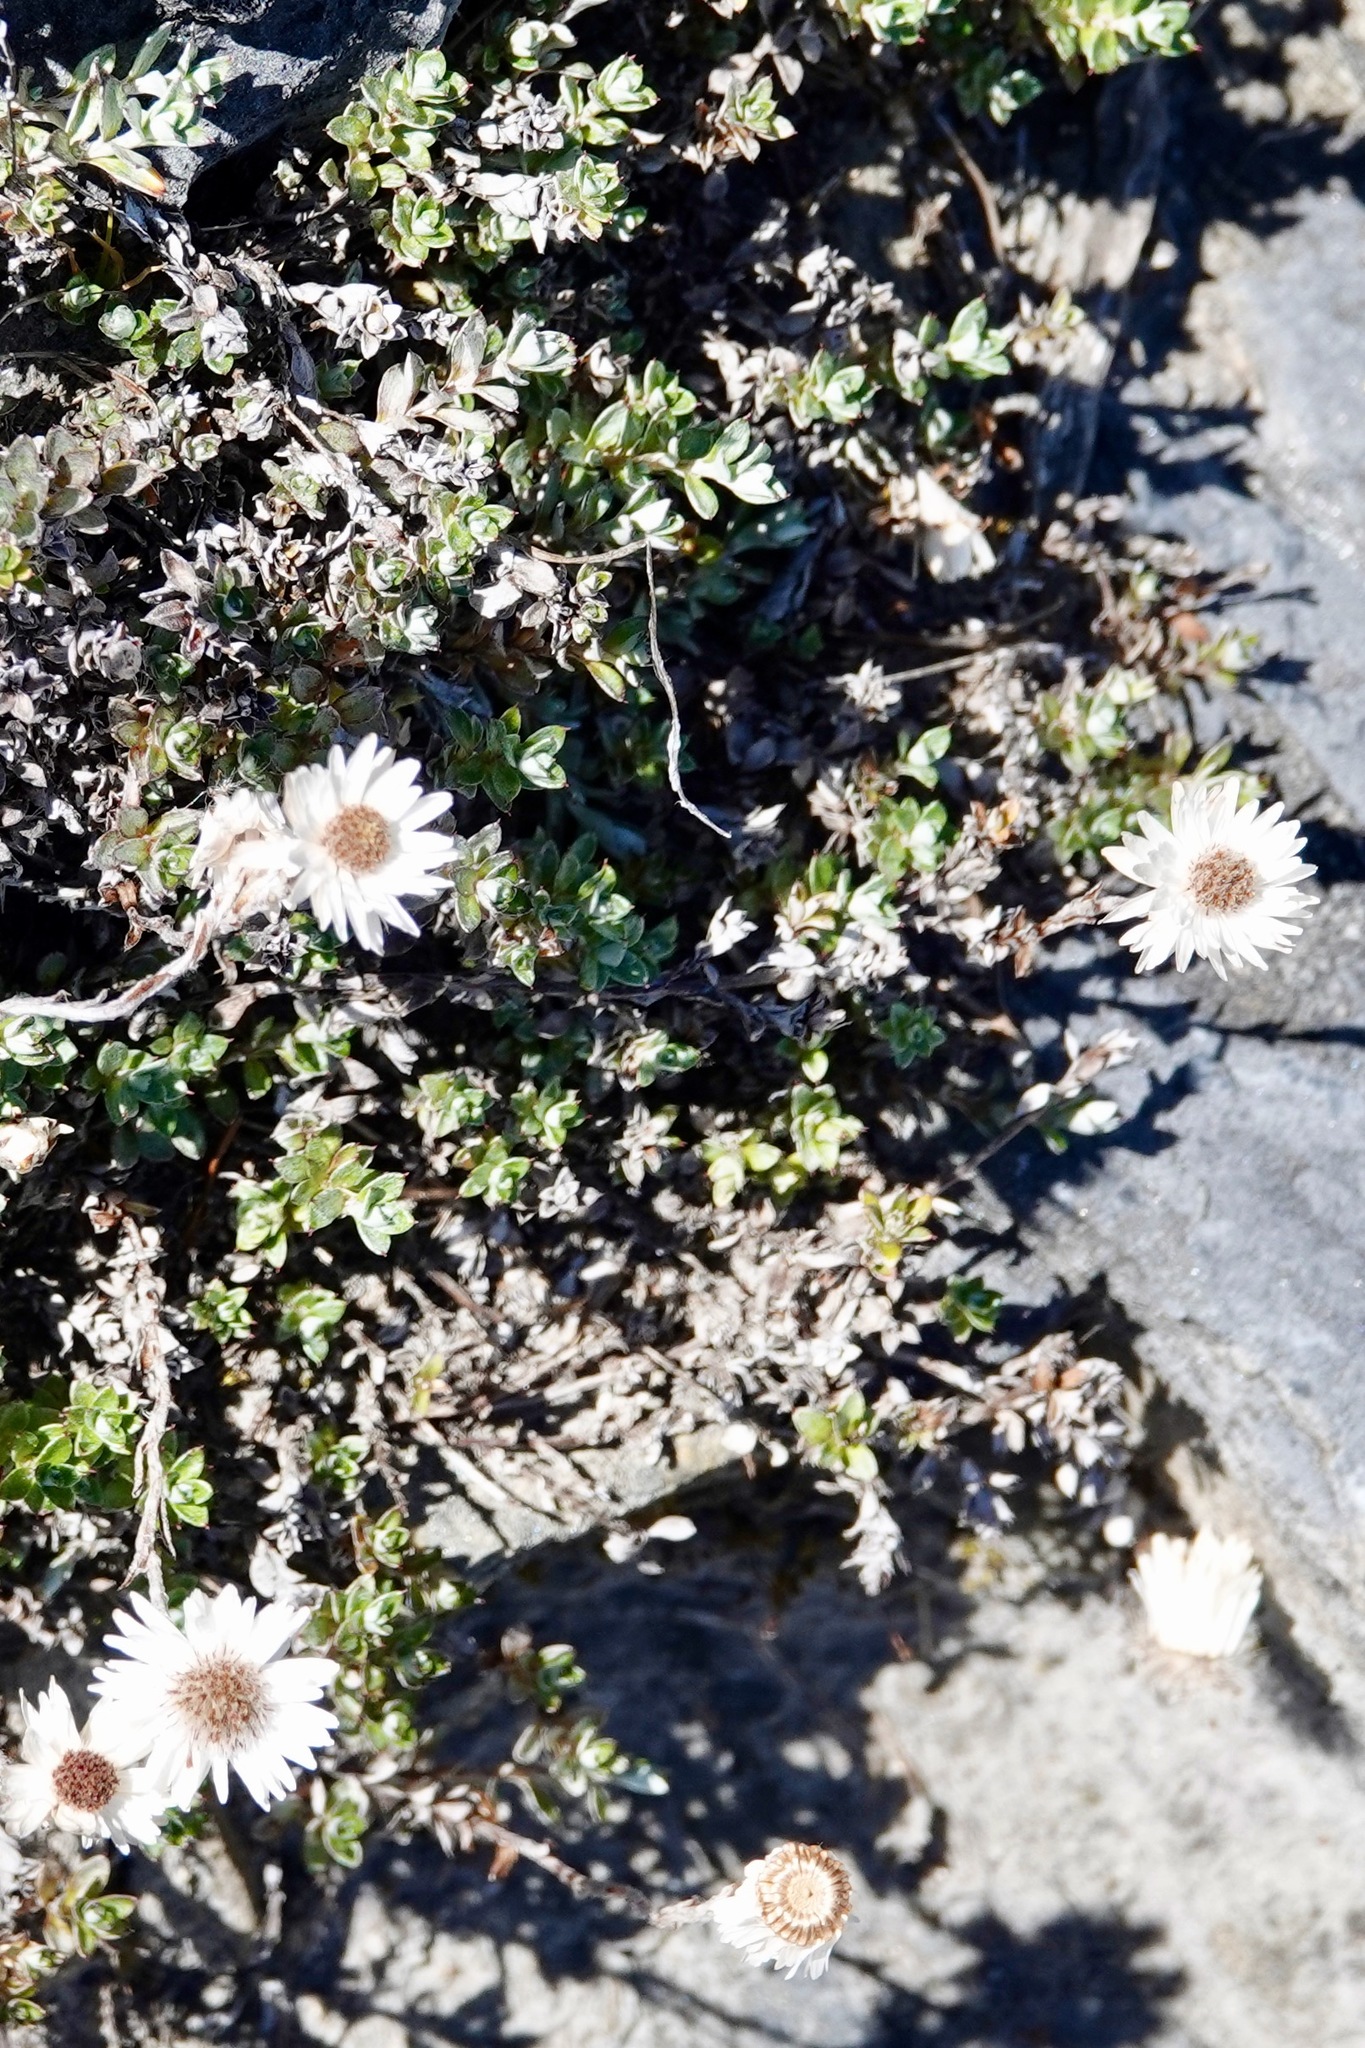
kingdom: Plantae
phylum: Tracheophyta
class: Magnoliopsida
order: Asterales
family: Asteraceae
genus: Anaphalioides
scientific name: Anaphalioides bellidioides
